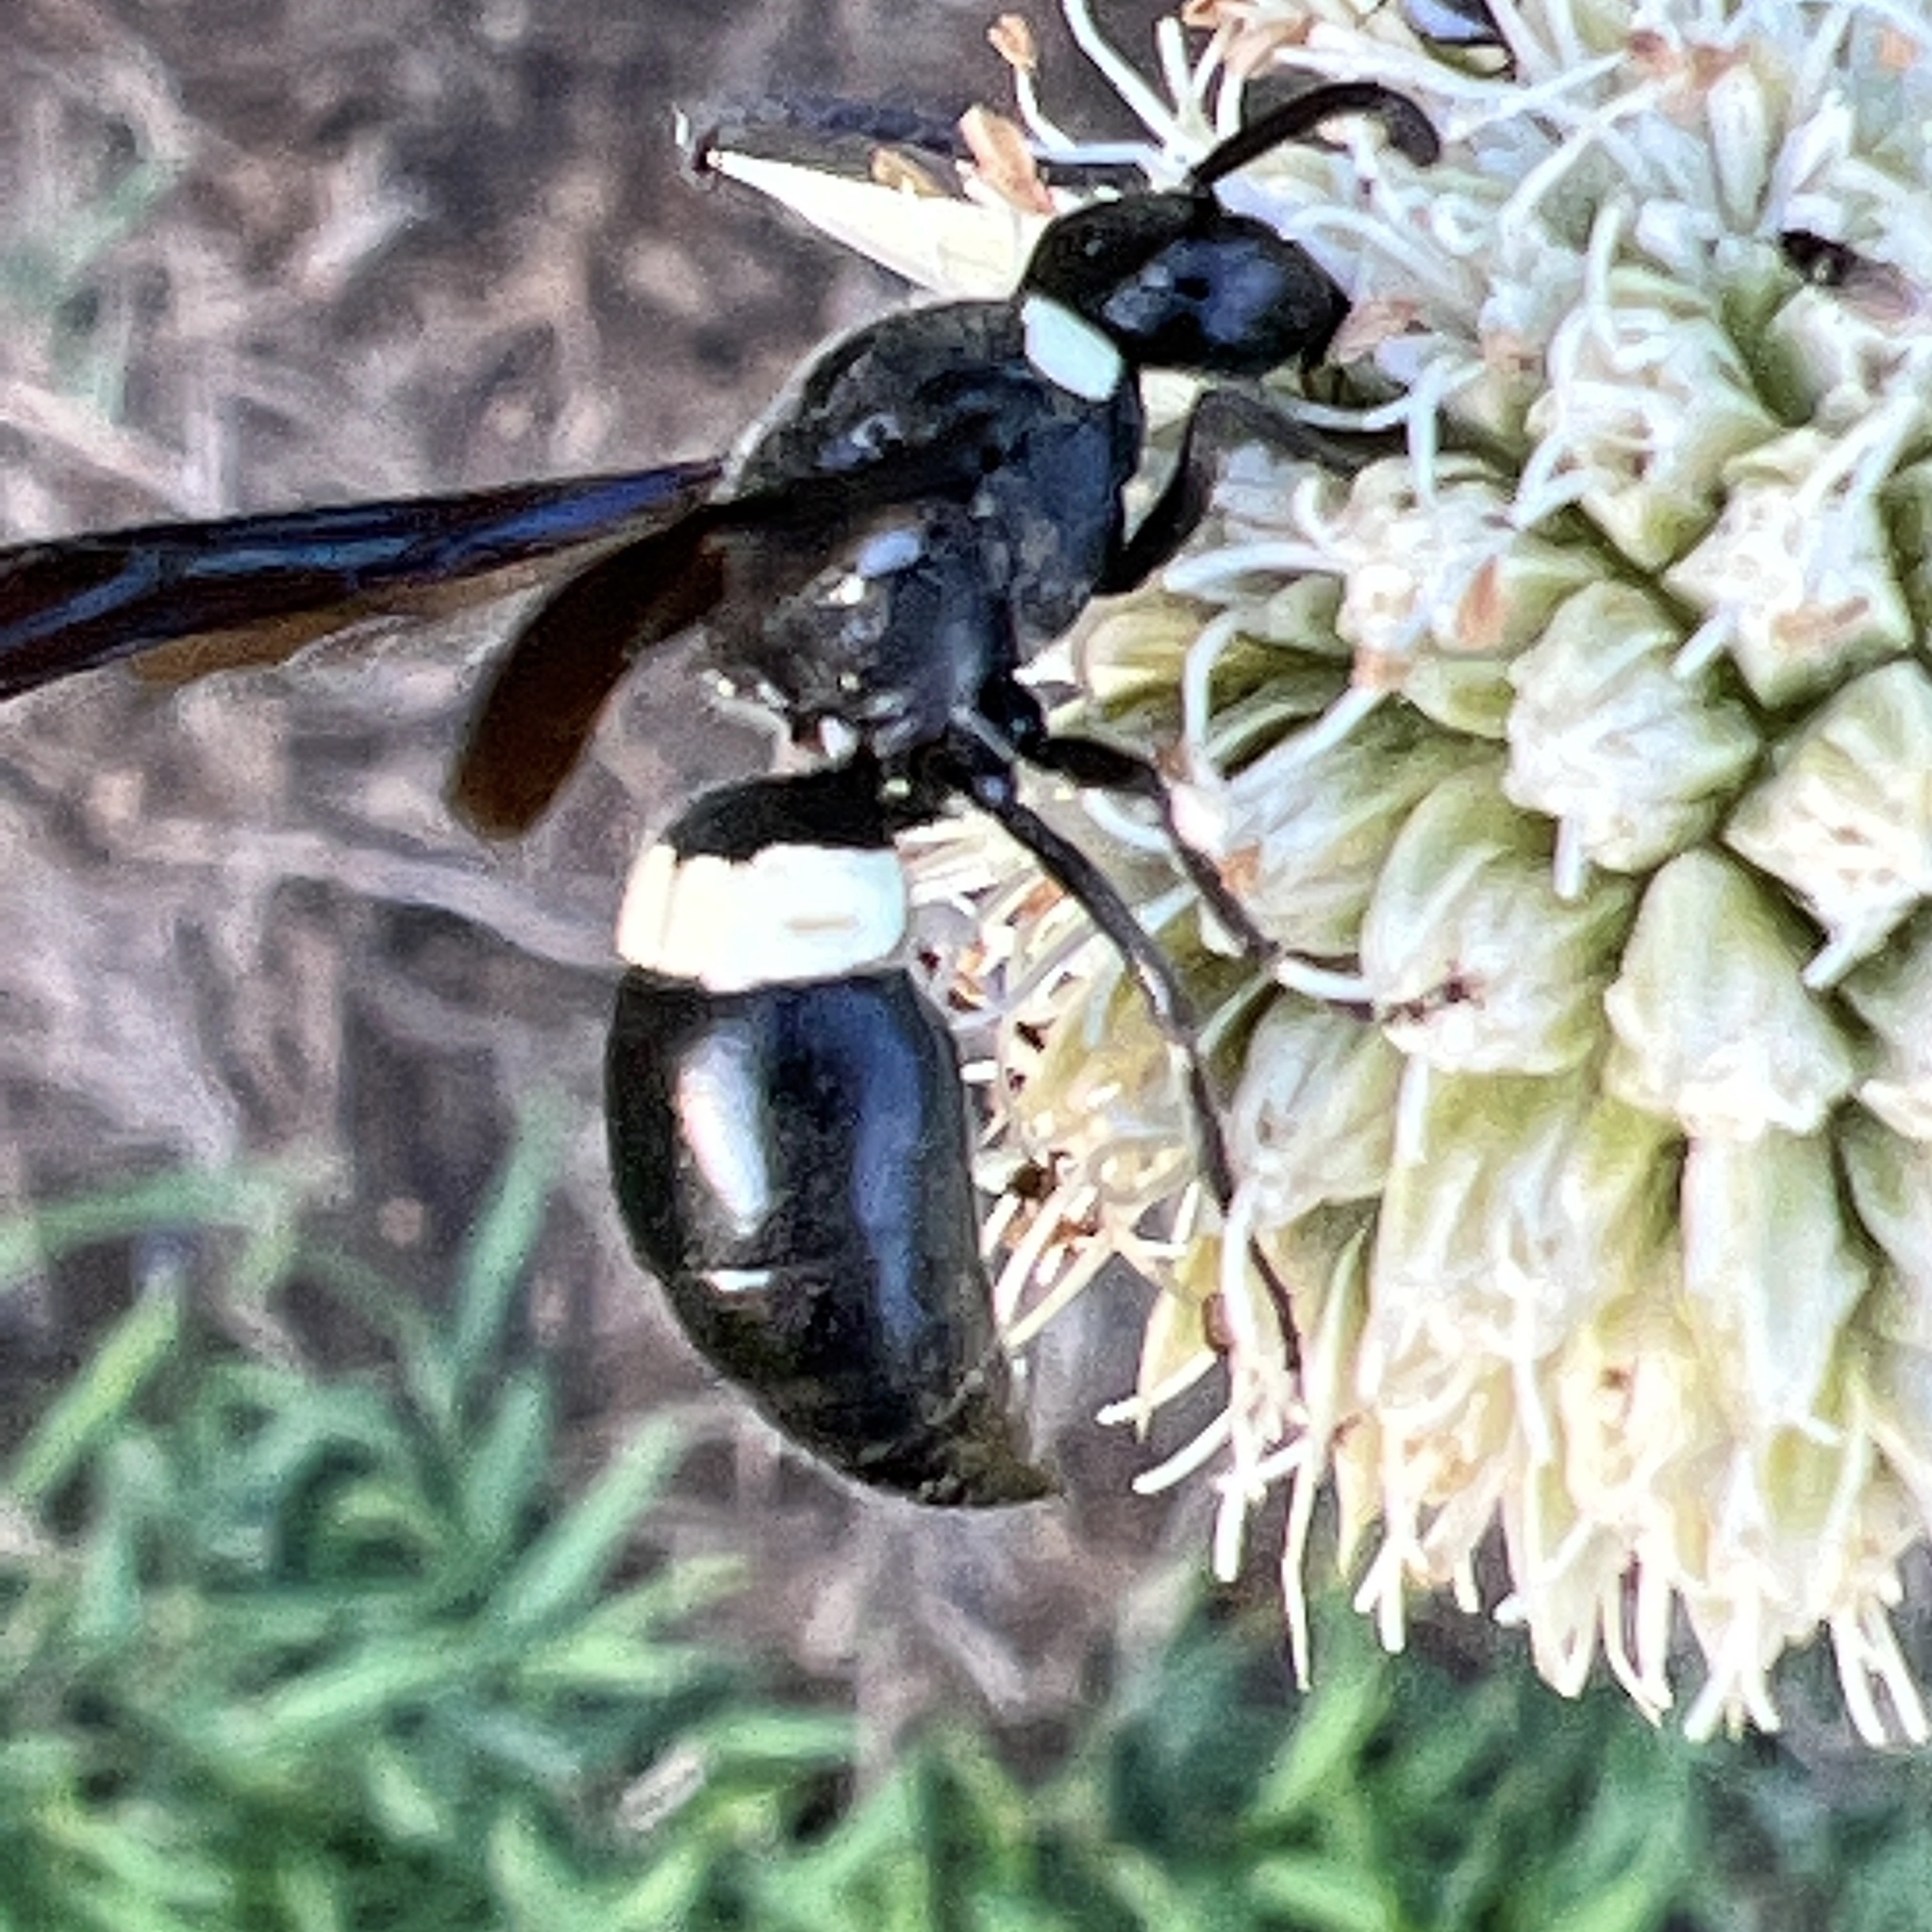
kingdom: Animalia
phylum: Arthropoda
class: Insecta
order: Hymenoptera
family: Eumenidae
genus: Monobia
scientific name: Monobia quadridens
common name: Four-toothed mason wasp
